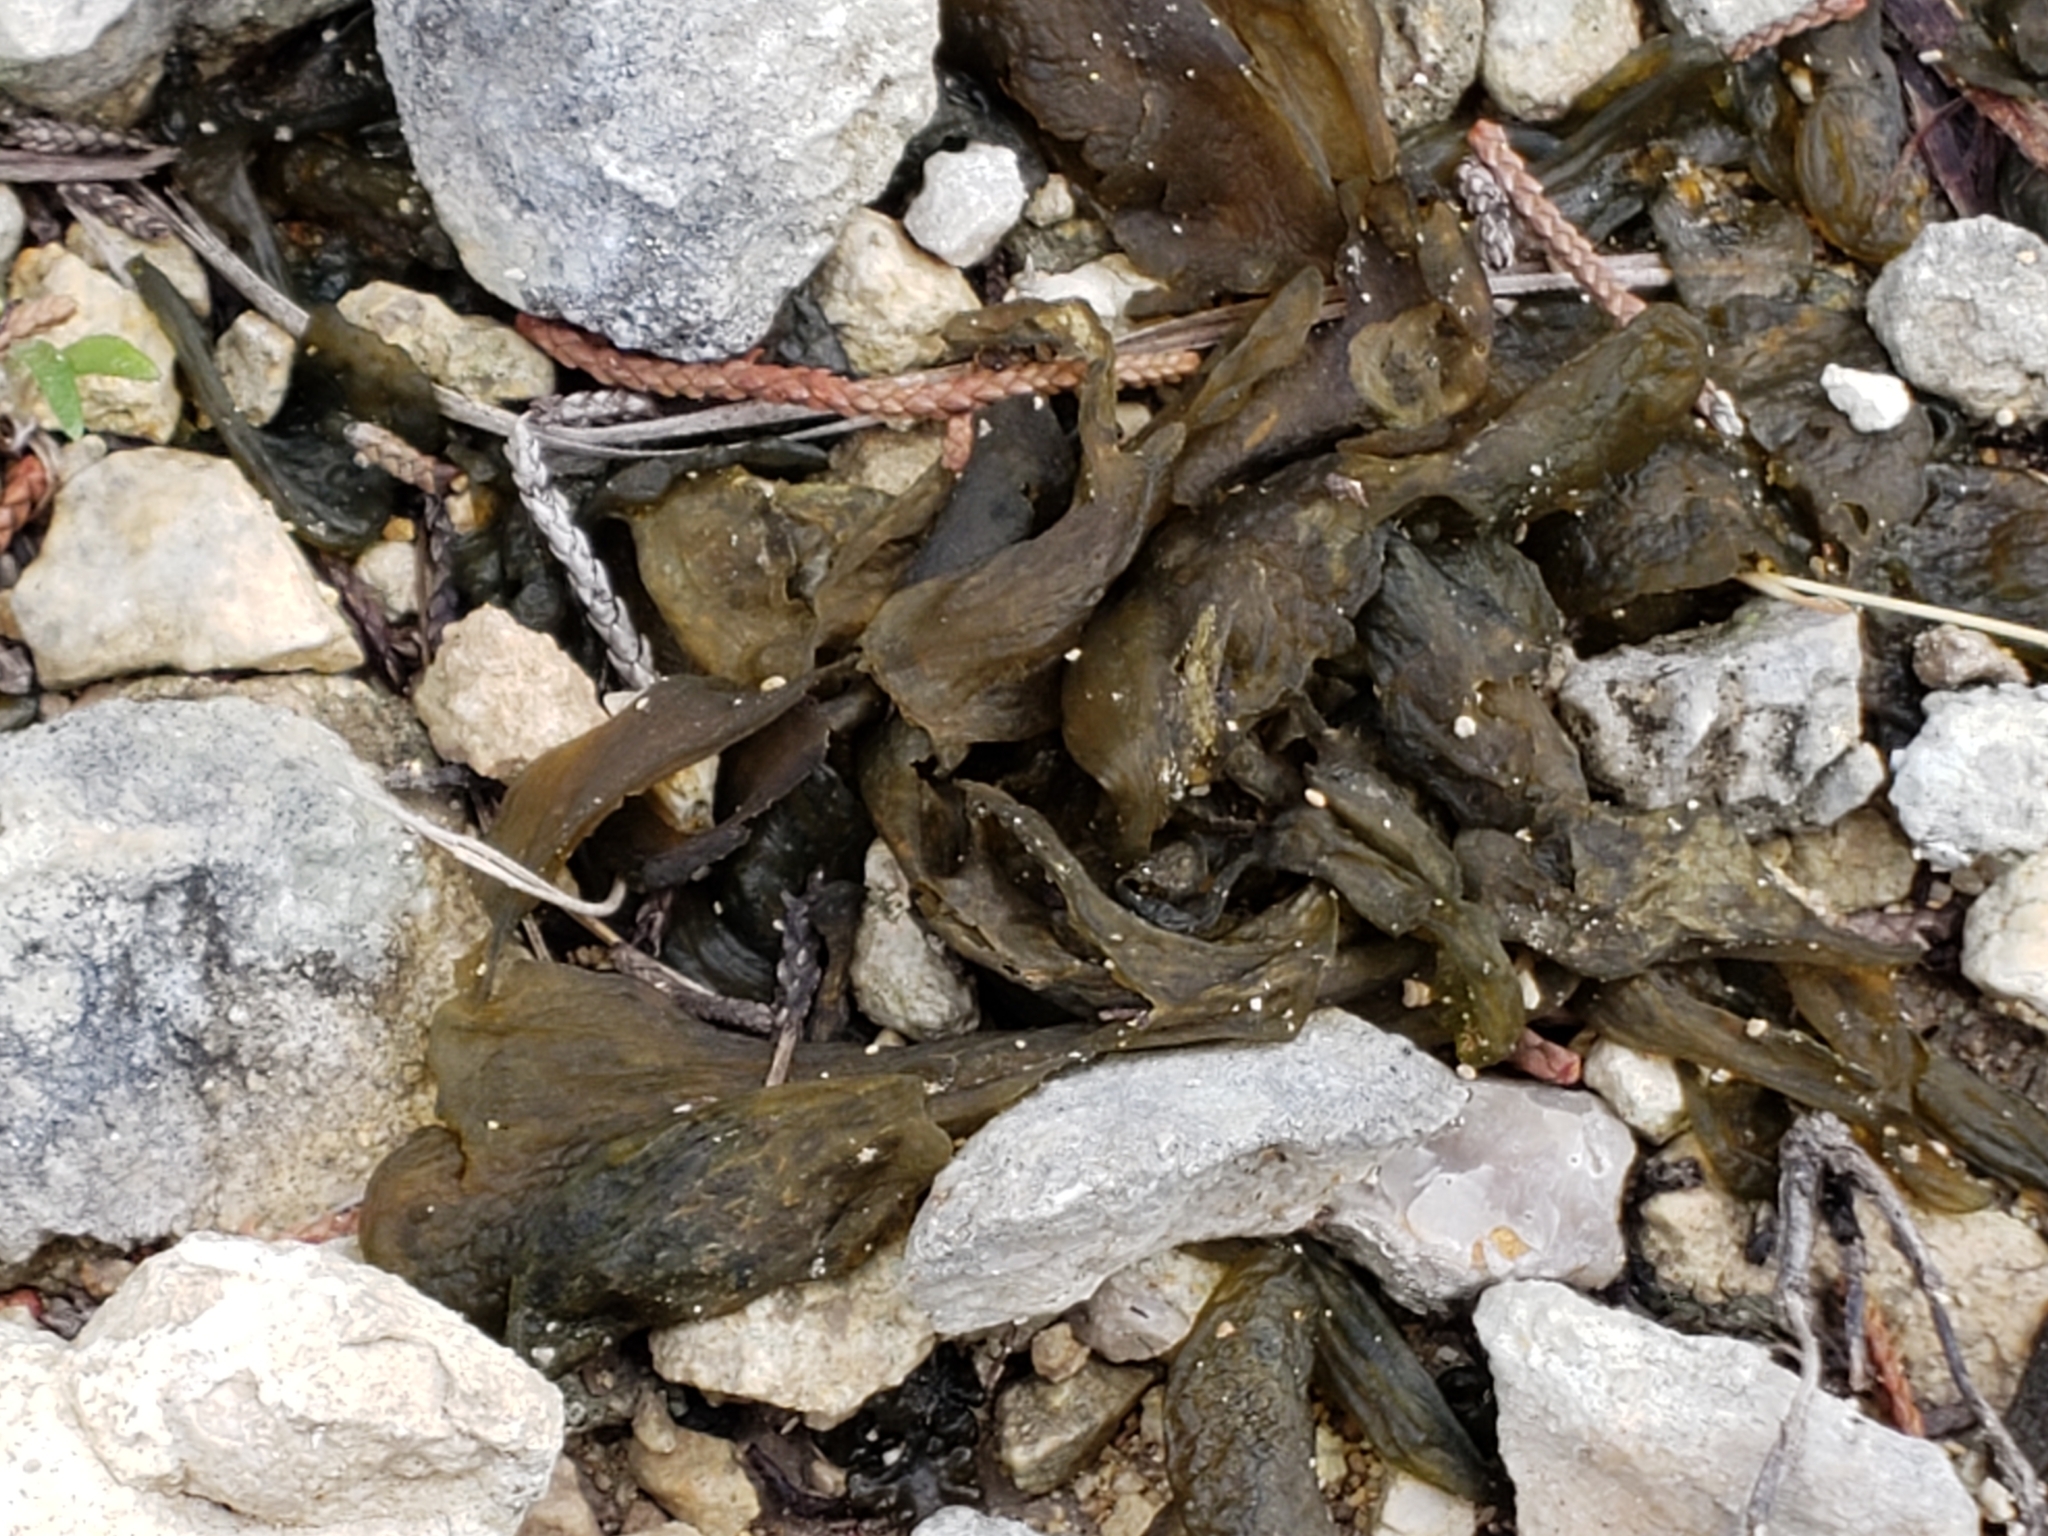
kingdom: Bacteria
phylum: Cyanobacteria
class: Cyanobacteriia
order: Cyanobacteriales
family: Nostocaceae
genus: Nostoc
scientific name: Nostoc commune
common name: Star jelly
